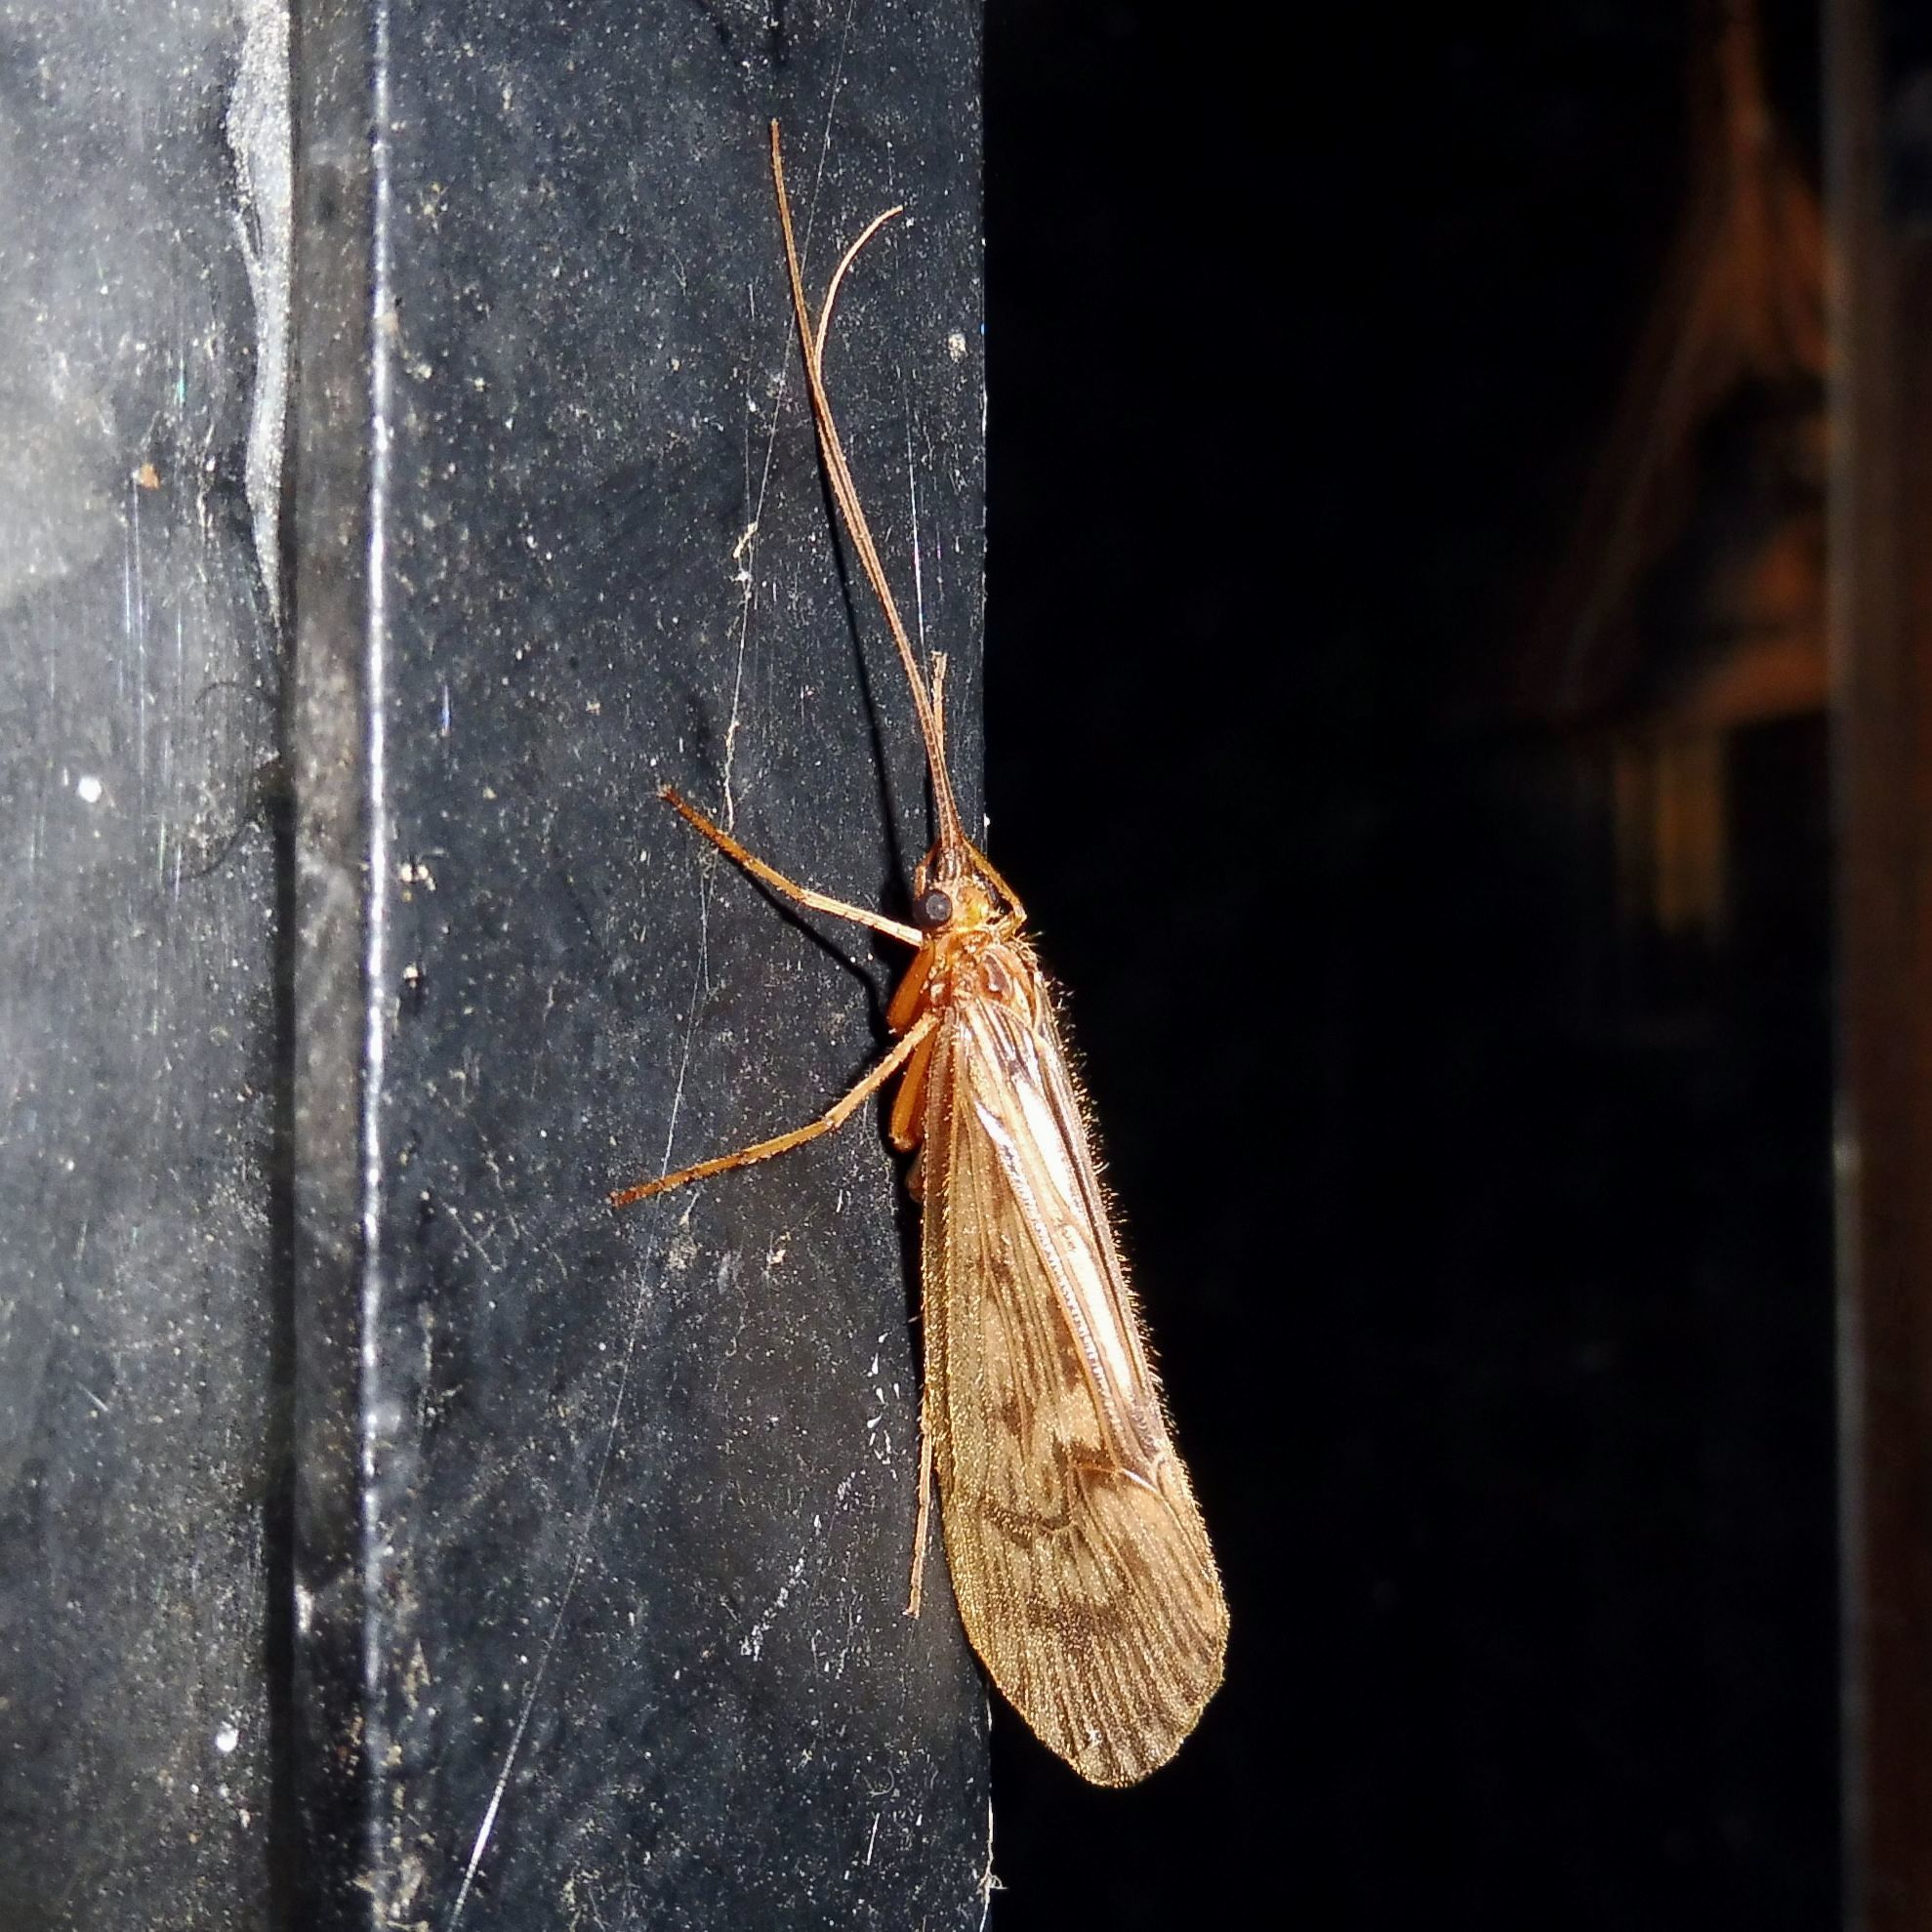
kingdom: Animalia
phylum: Arthropoda
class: Insecta
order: Trichoptera
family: Limnephilidae
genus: Halesus
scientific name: Halesus radiatus
